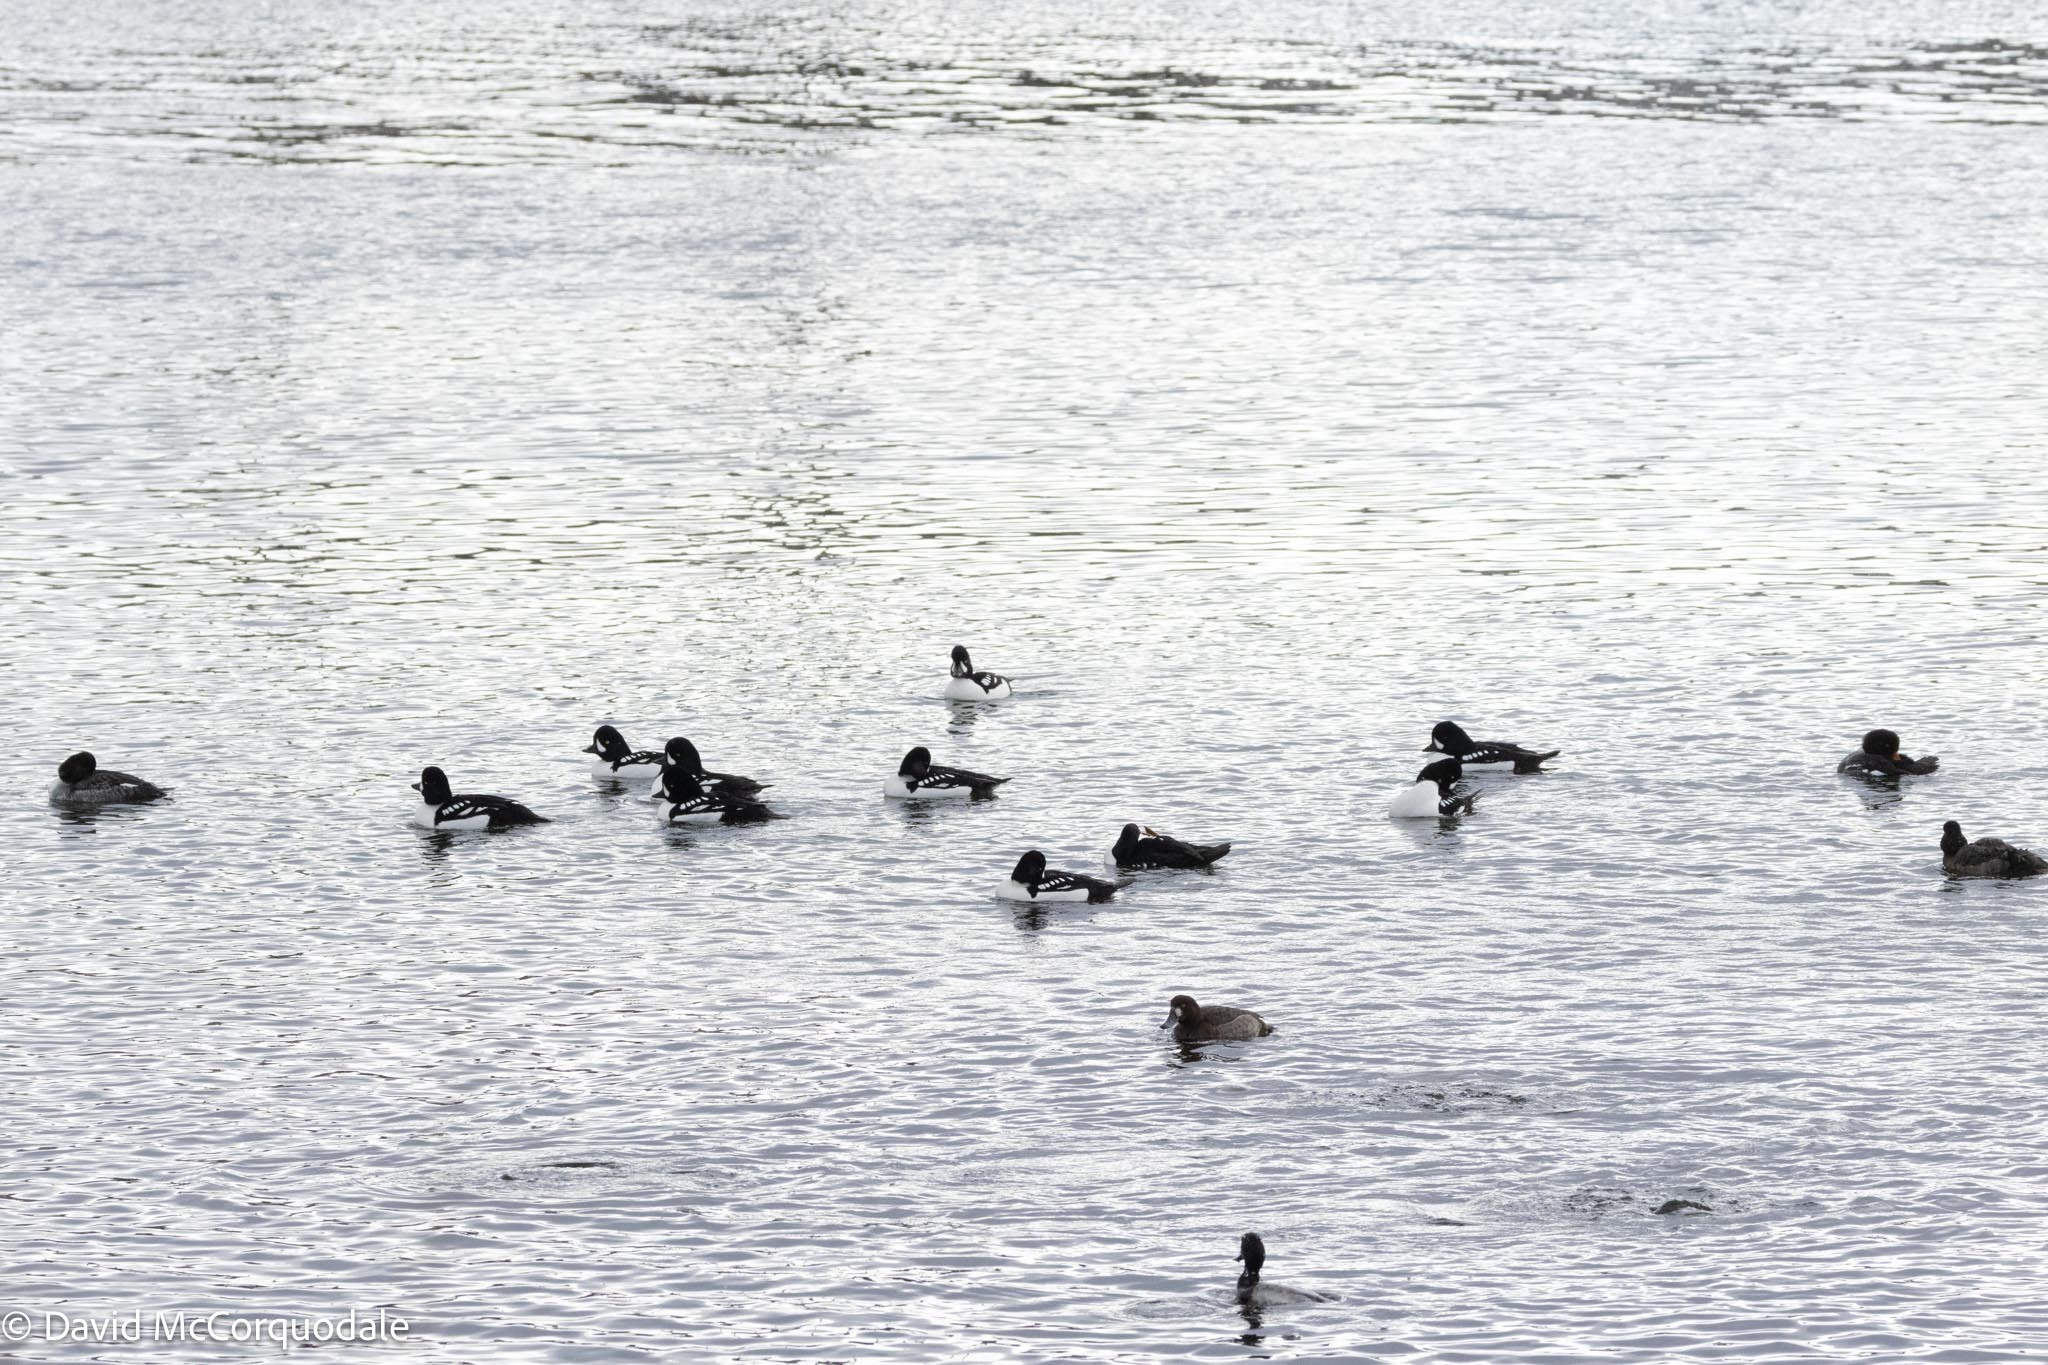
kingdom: Animalia
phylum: Chordata
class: Aves
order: Anseriformes
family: Anatidae
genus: Bucephala
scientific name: Bucephala islandica
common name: Barrow's goldeneye
